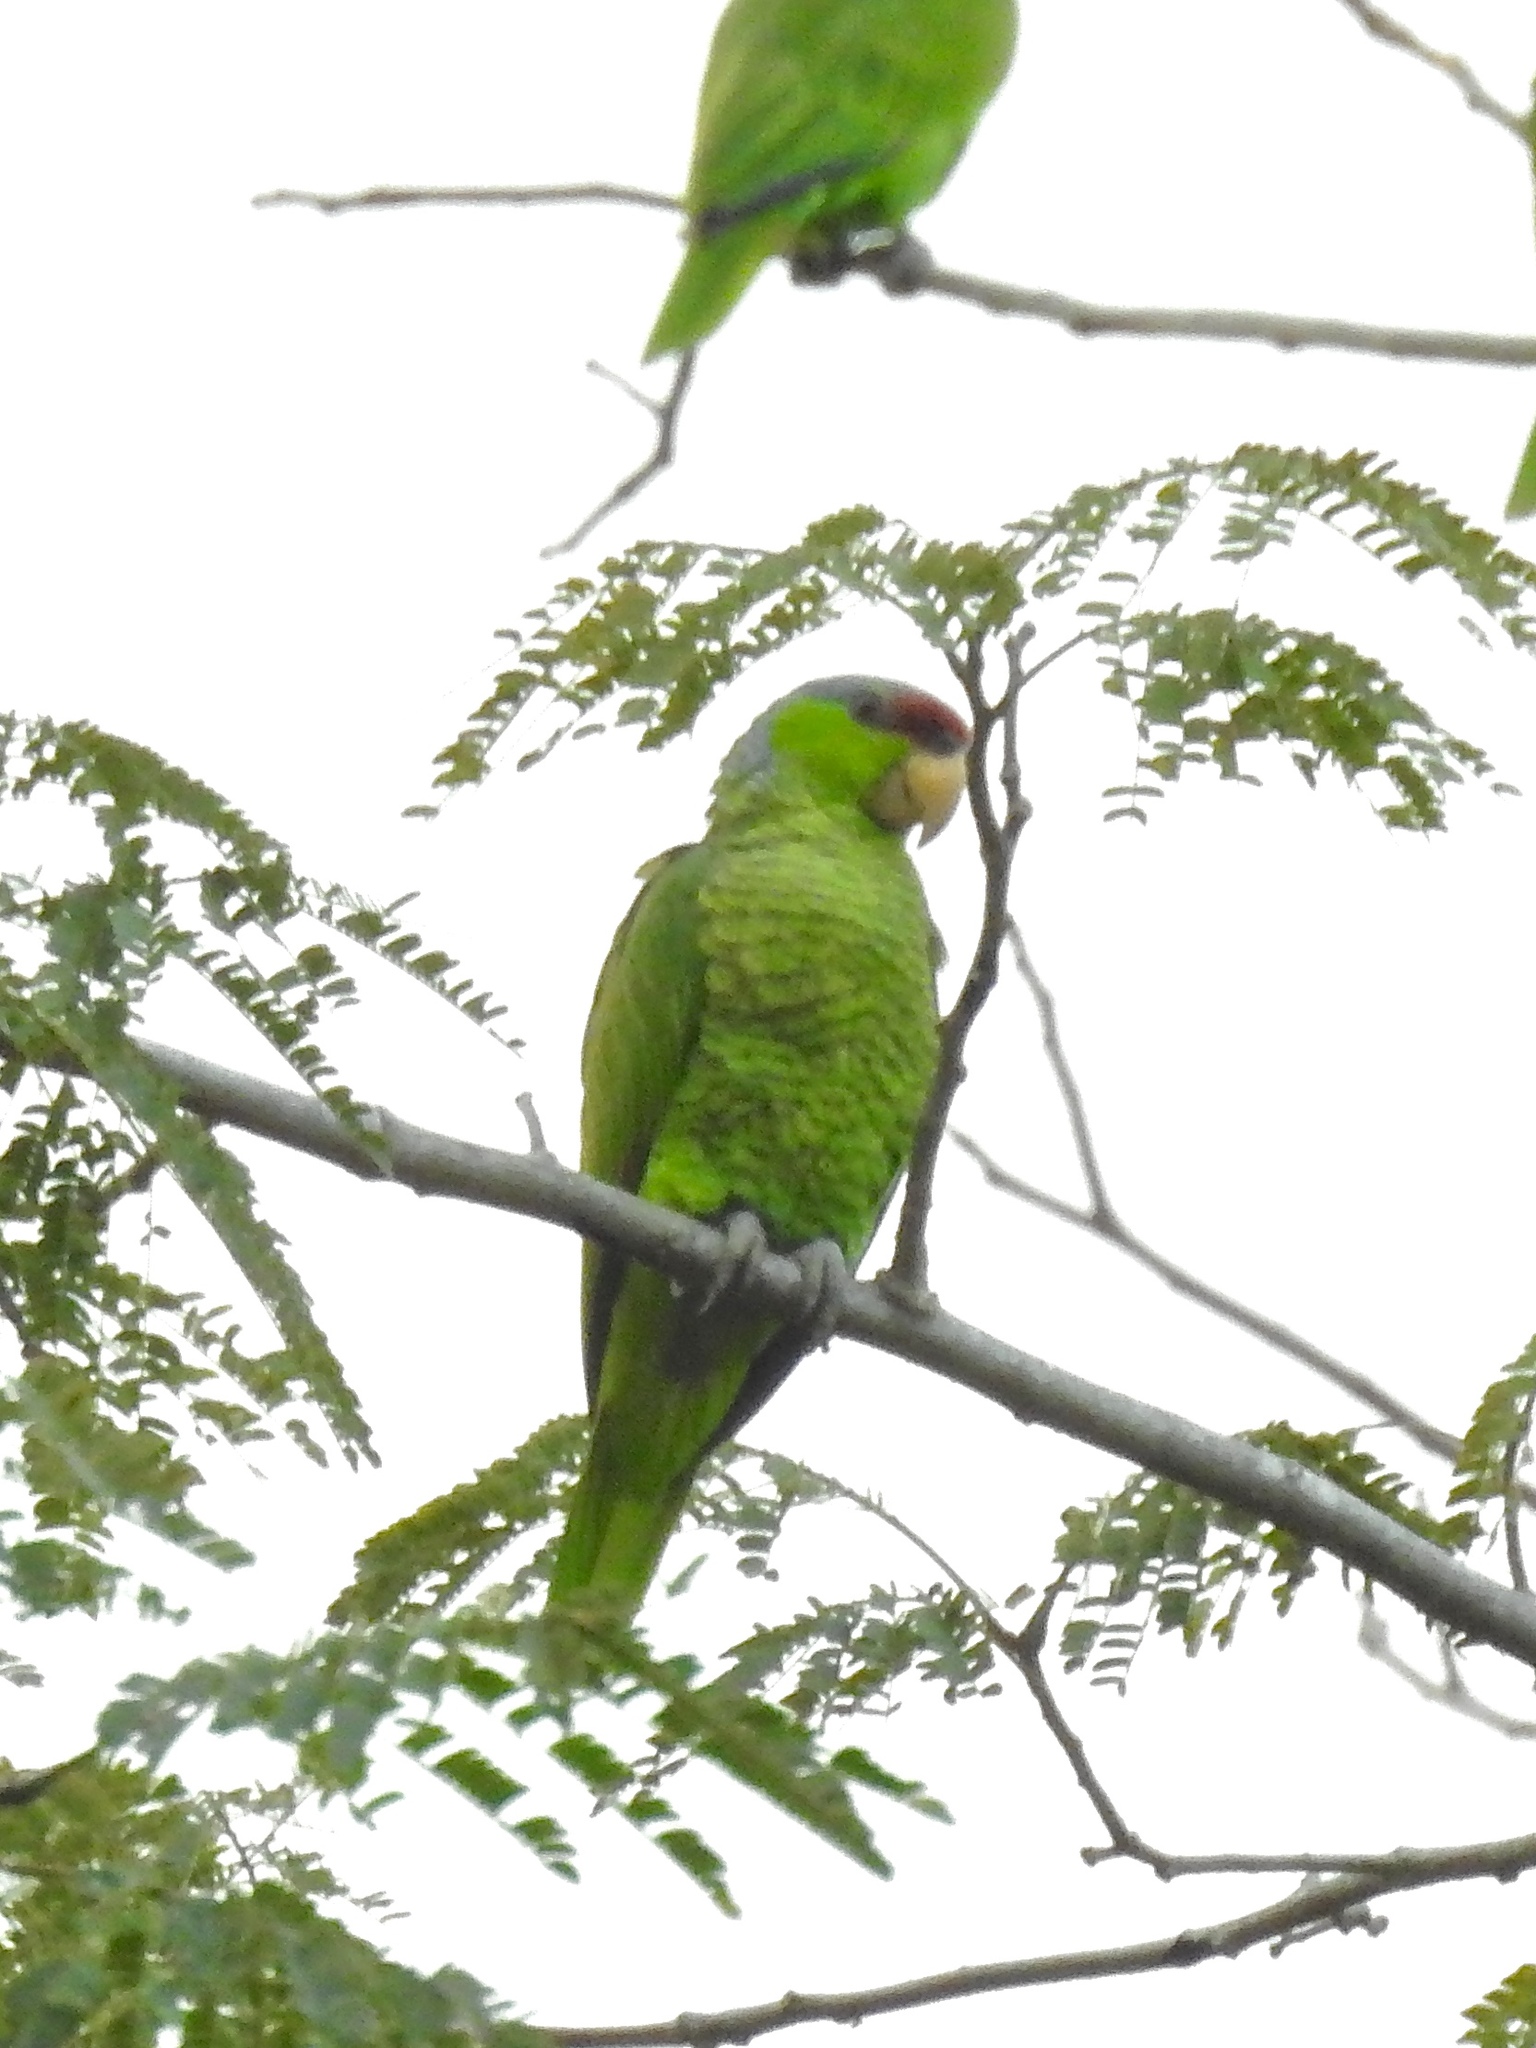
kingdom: Animalia
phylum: Chordata
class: Aves
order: Psittaciformes
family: Psittacidae
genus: Amazona
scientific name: Amazona finschi
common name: Lilac-crowned amazon
